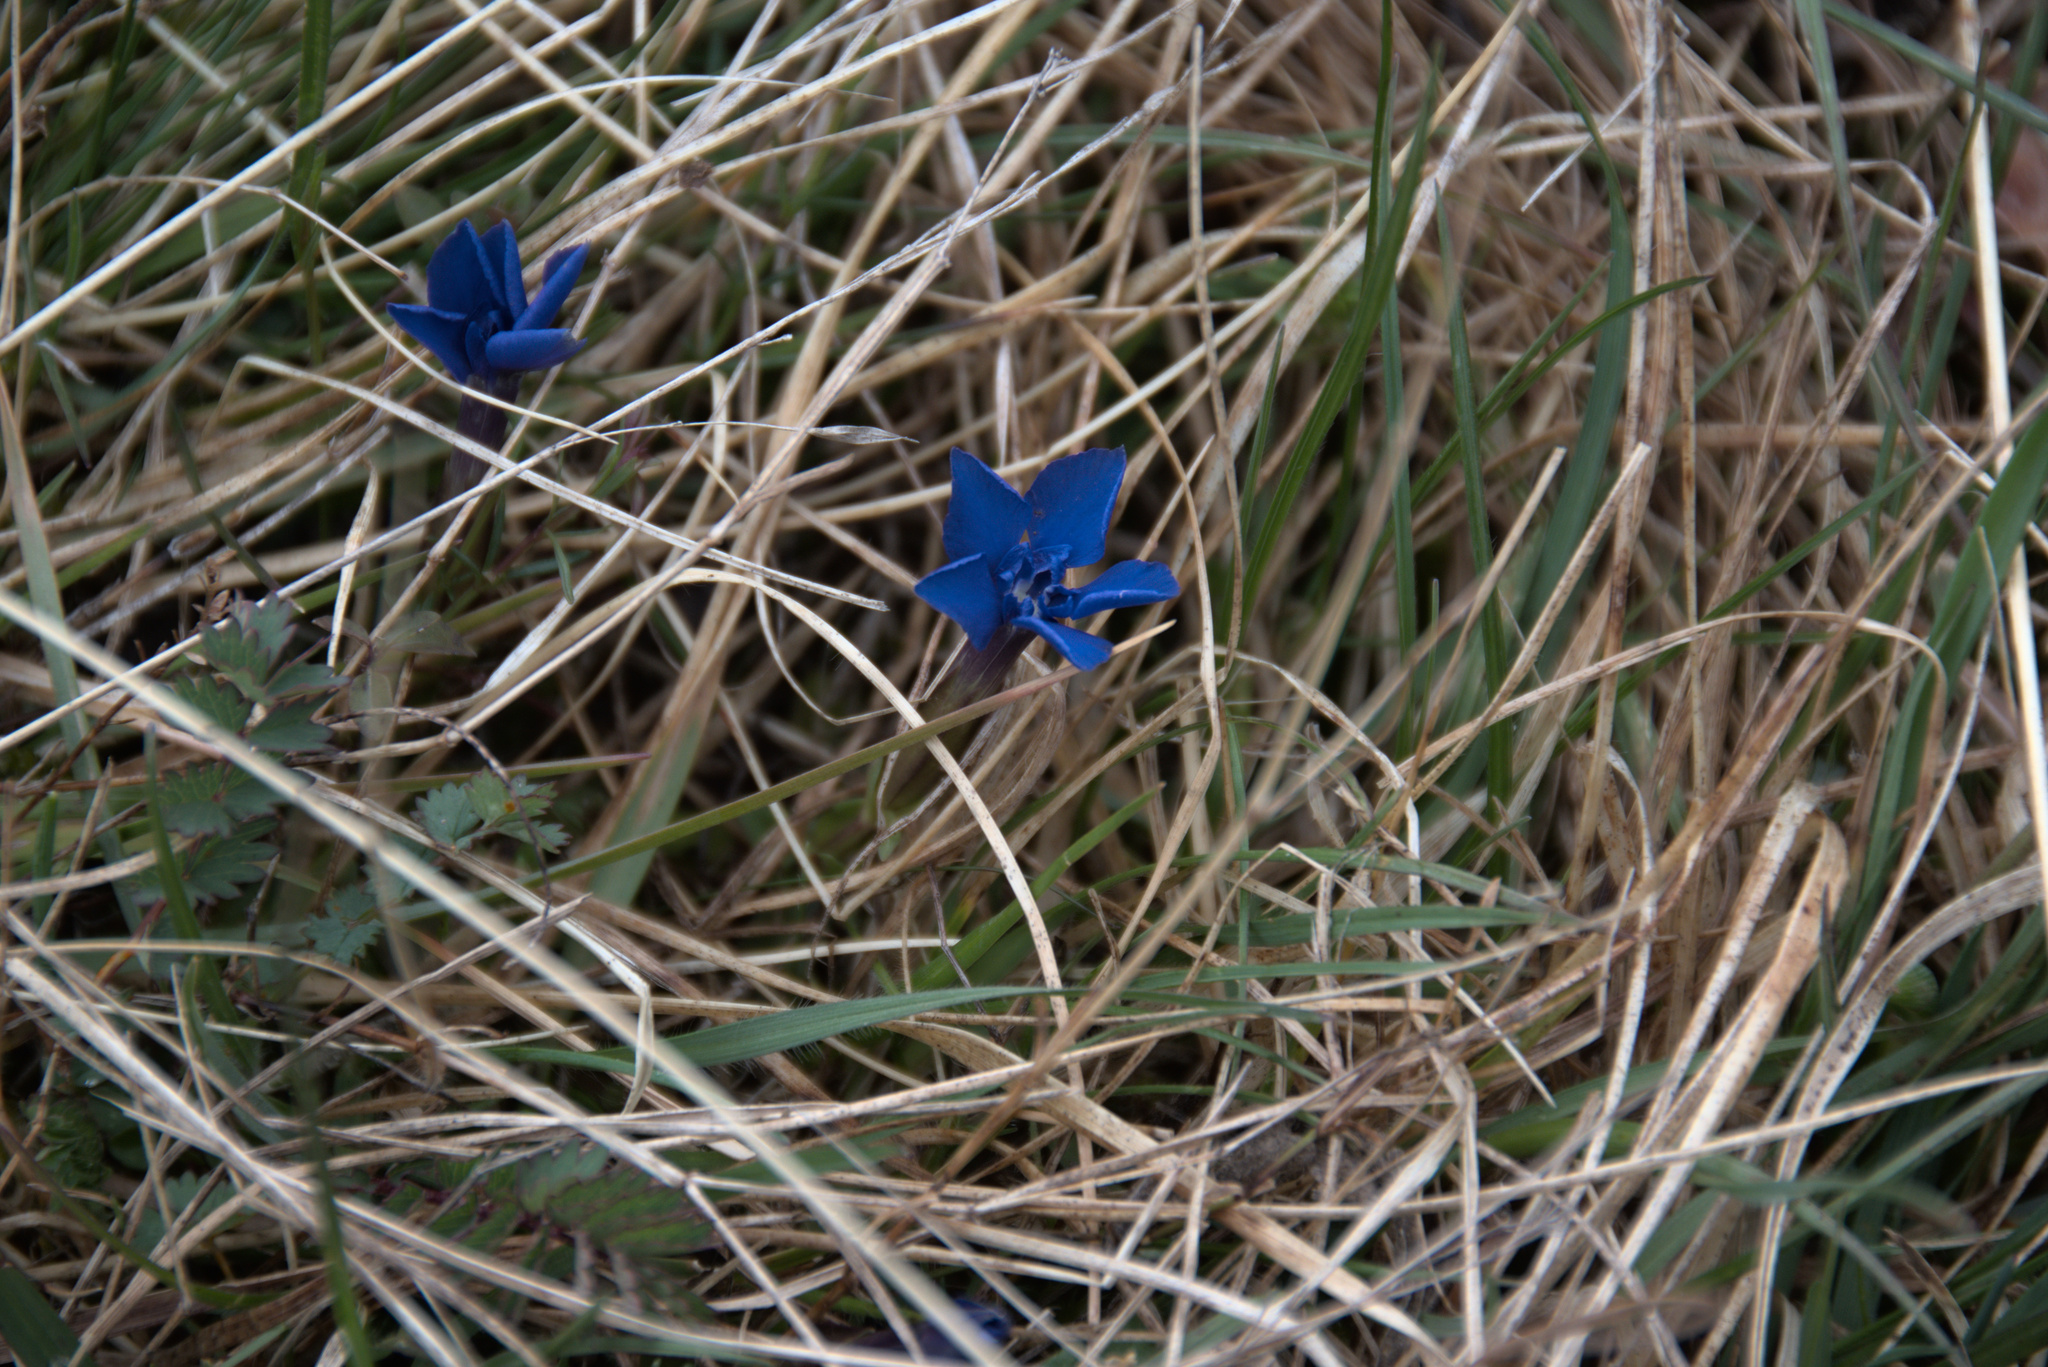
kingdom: Plantae
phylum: Tracheophyta
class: Magnoliopsida
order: Gentianales
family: Gentianaceae
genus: Gentiana
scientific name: Gentiana verna
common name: Spring gentian
